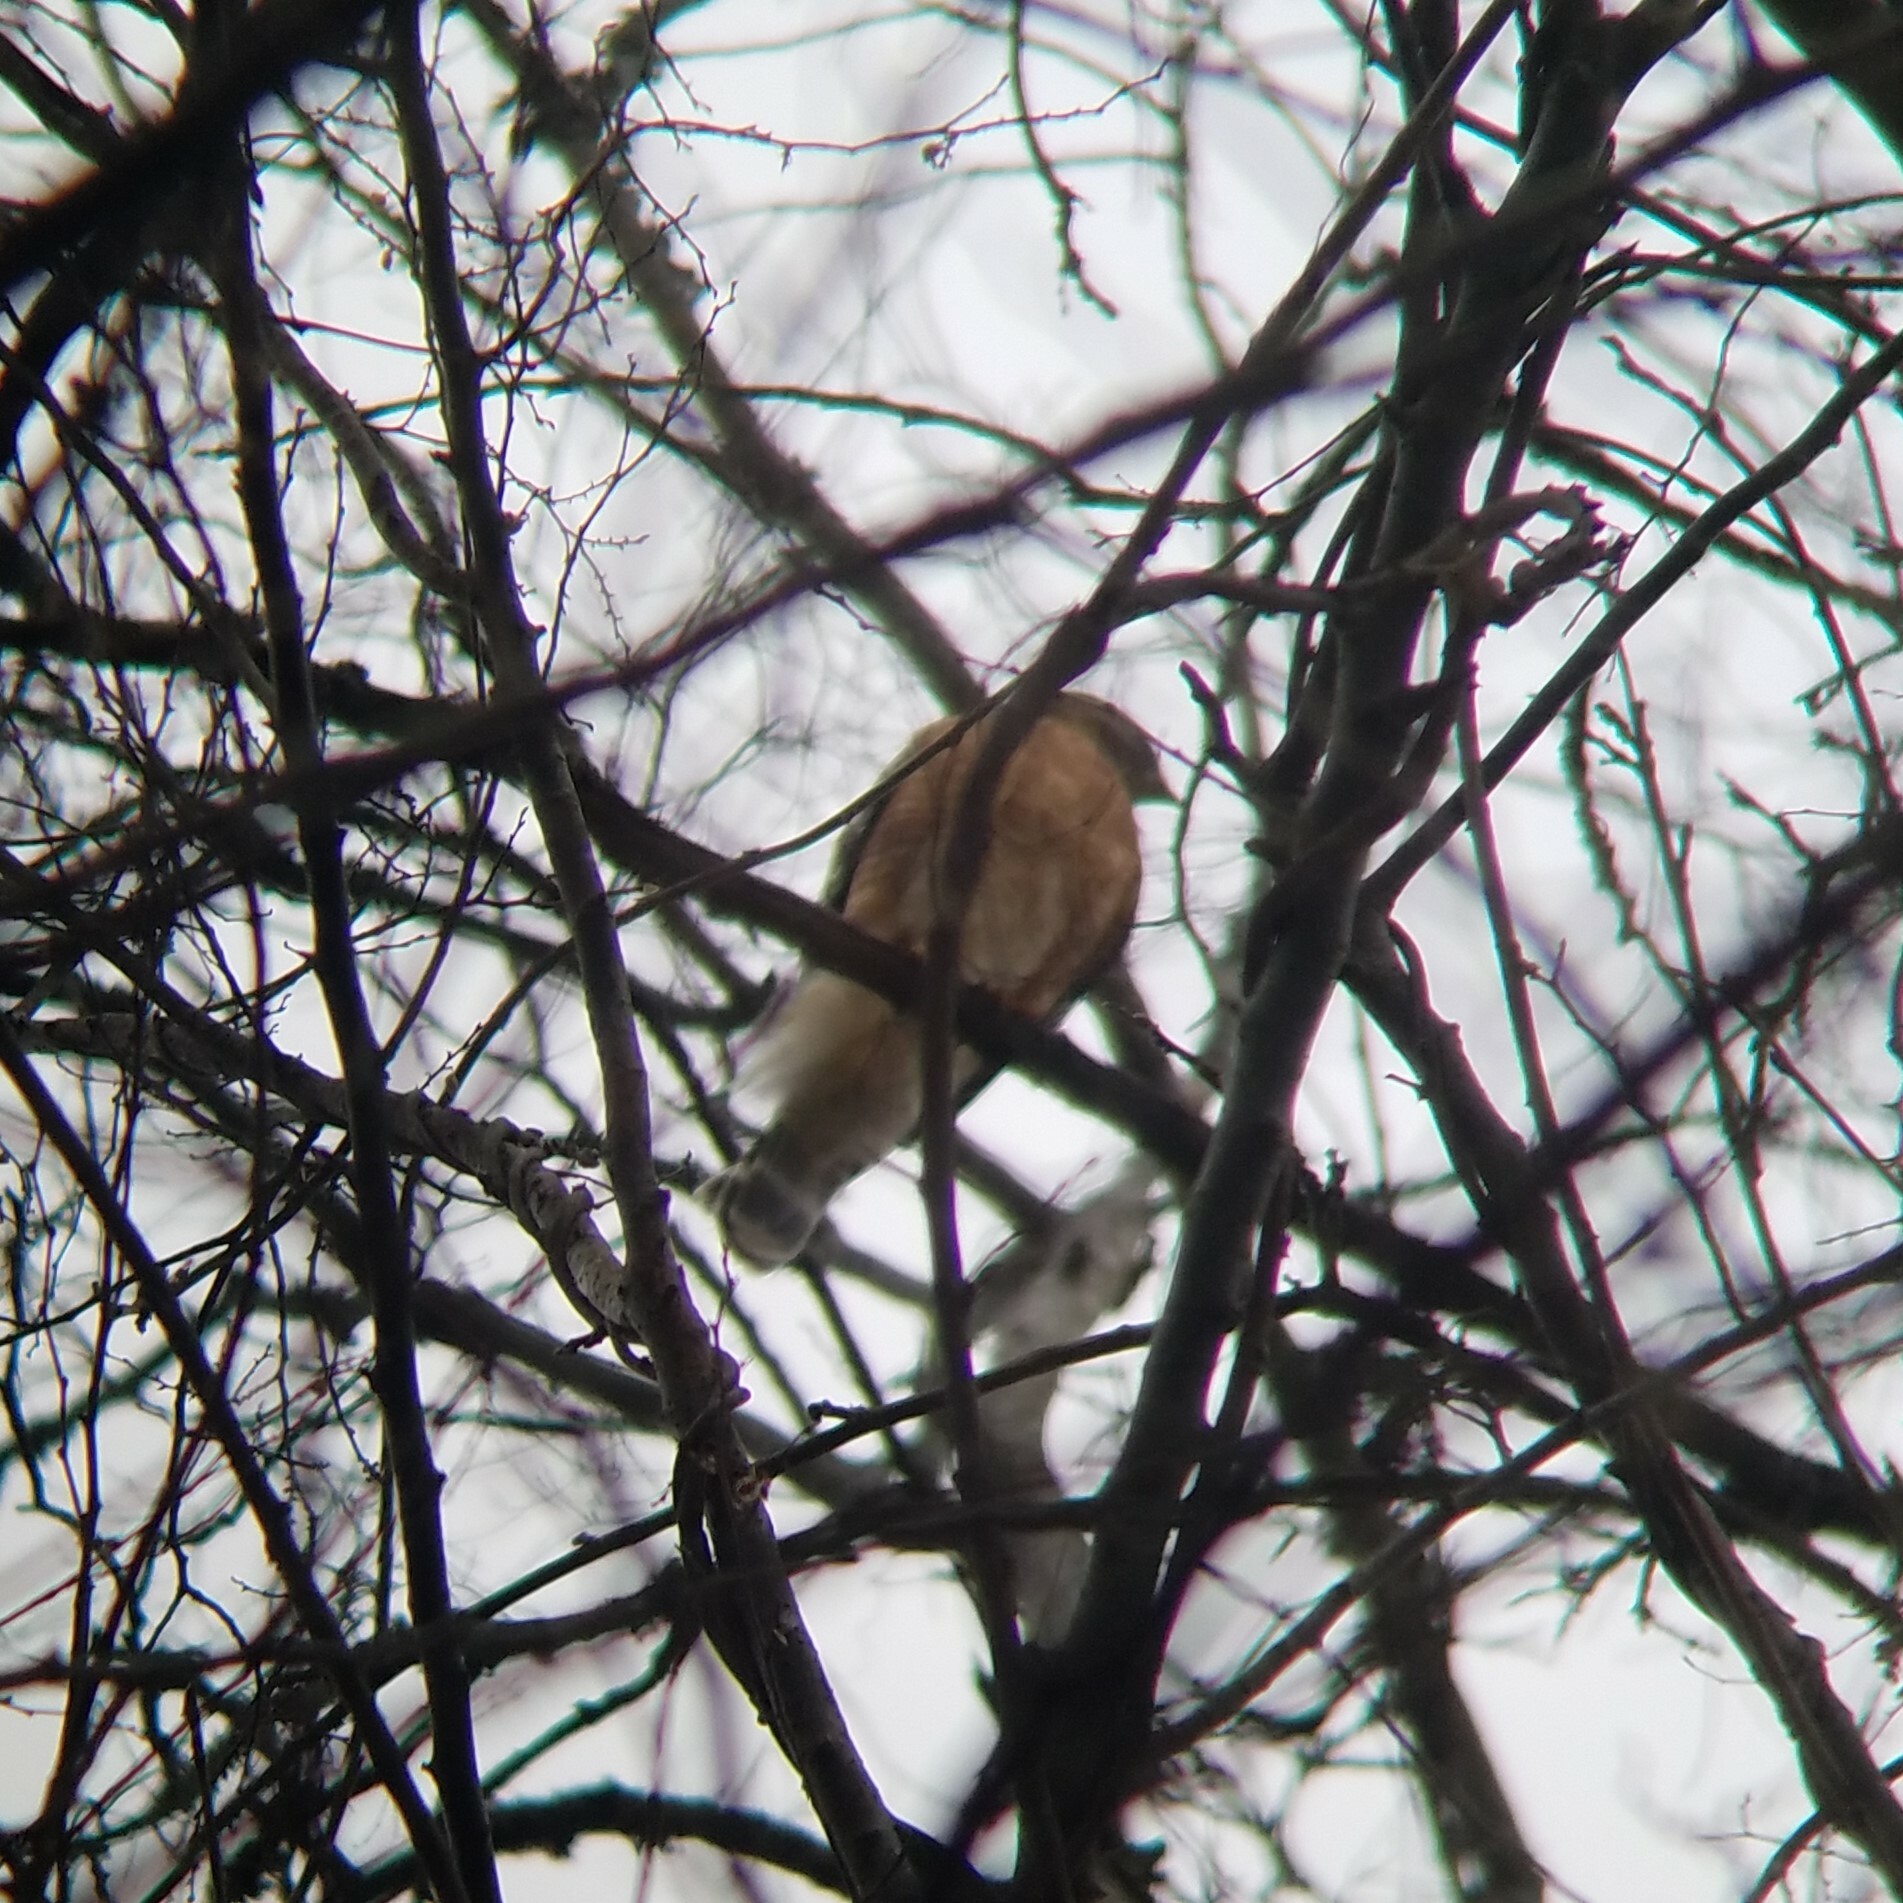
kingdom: Animalia
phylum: Chordata
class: Aves
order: Accipitriformes
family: Accipitridae
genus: Buteo
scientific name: Buteo lineatus
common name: Red-shouldered hawk
